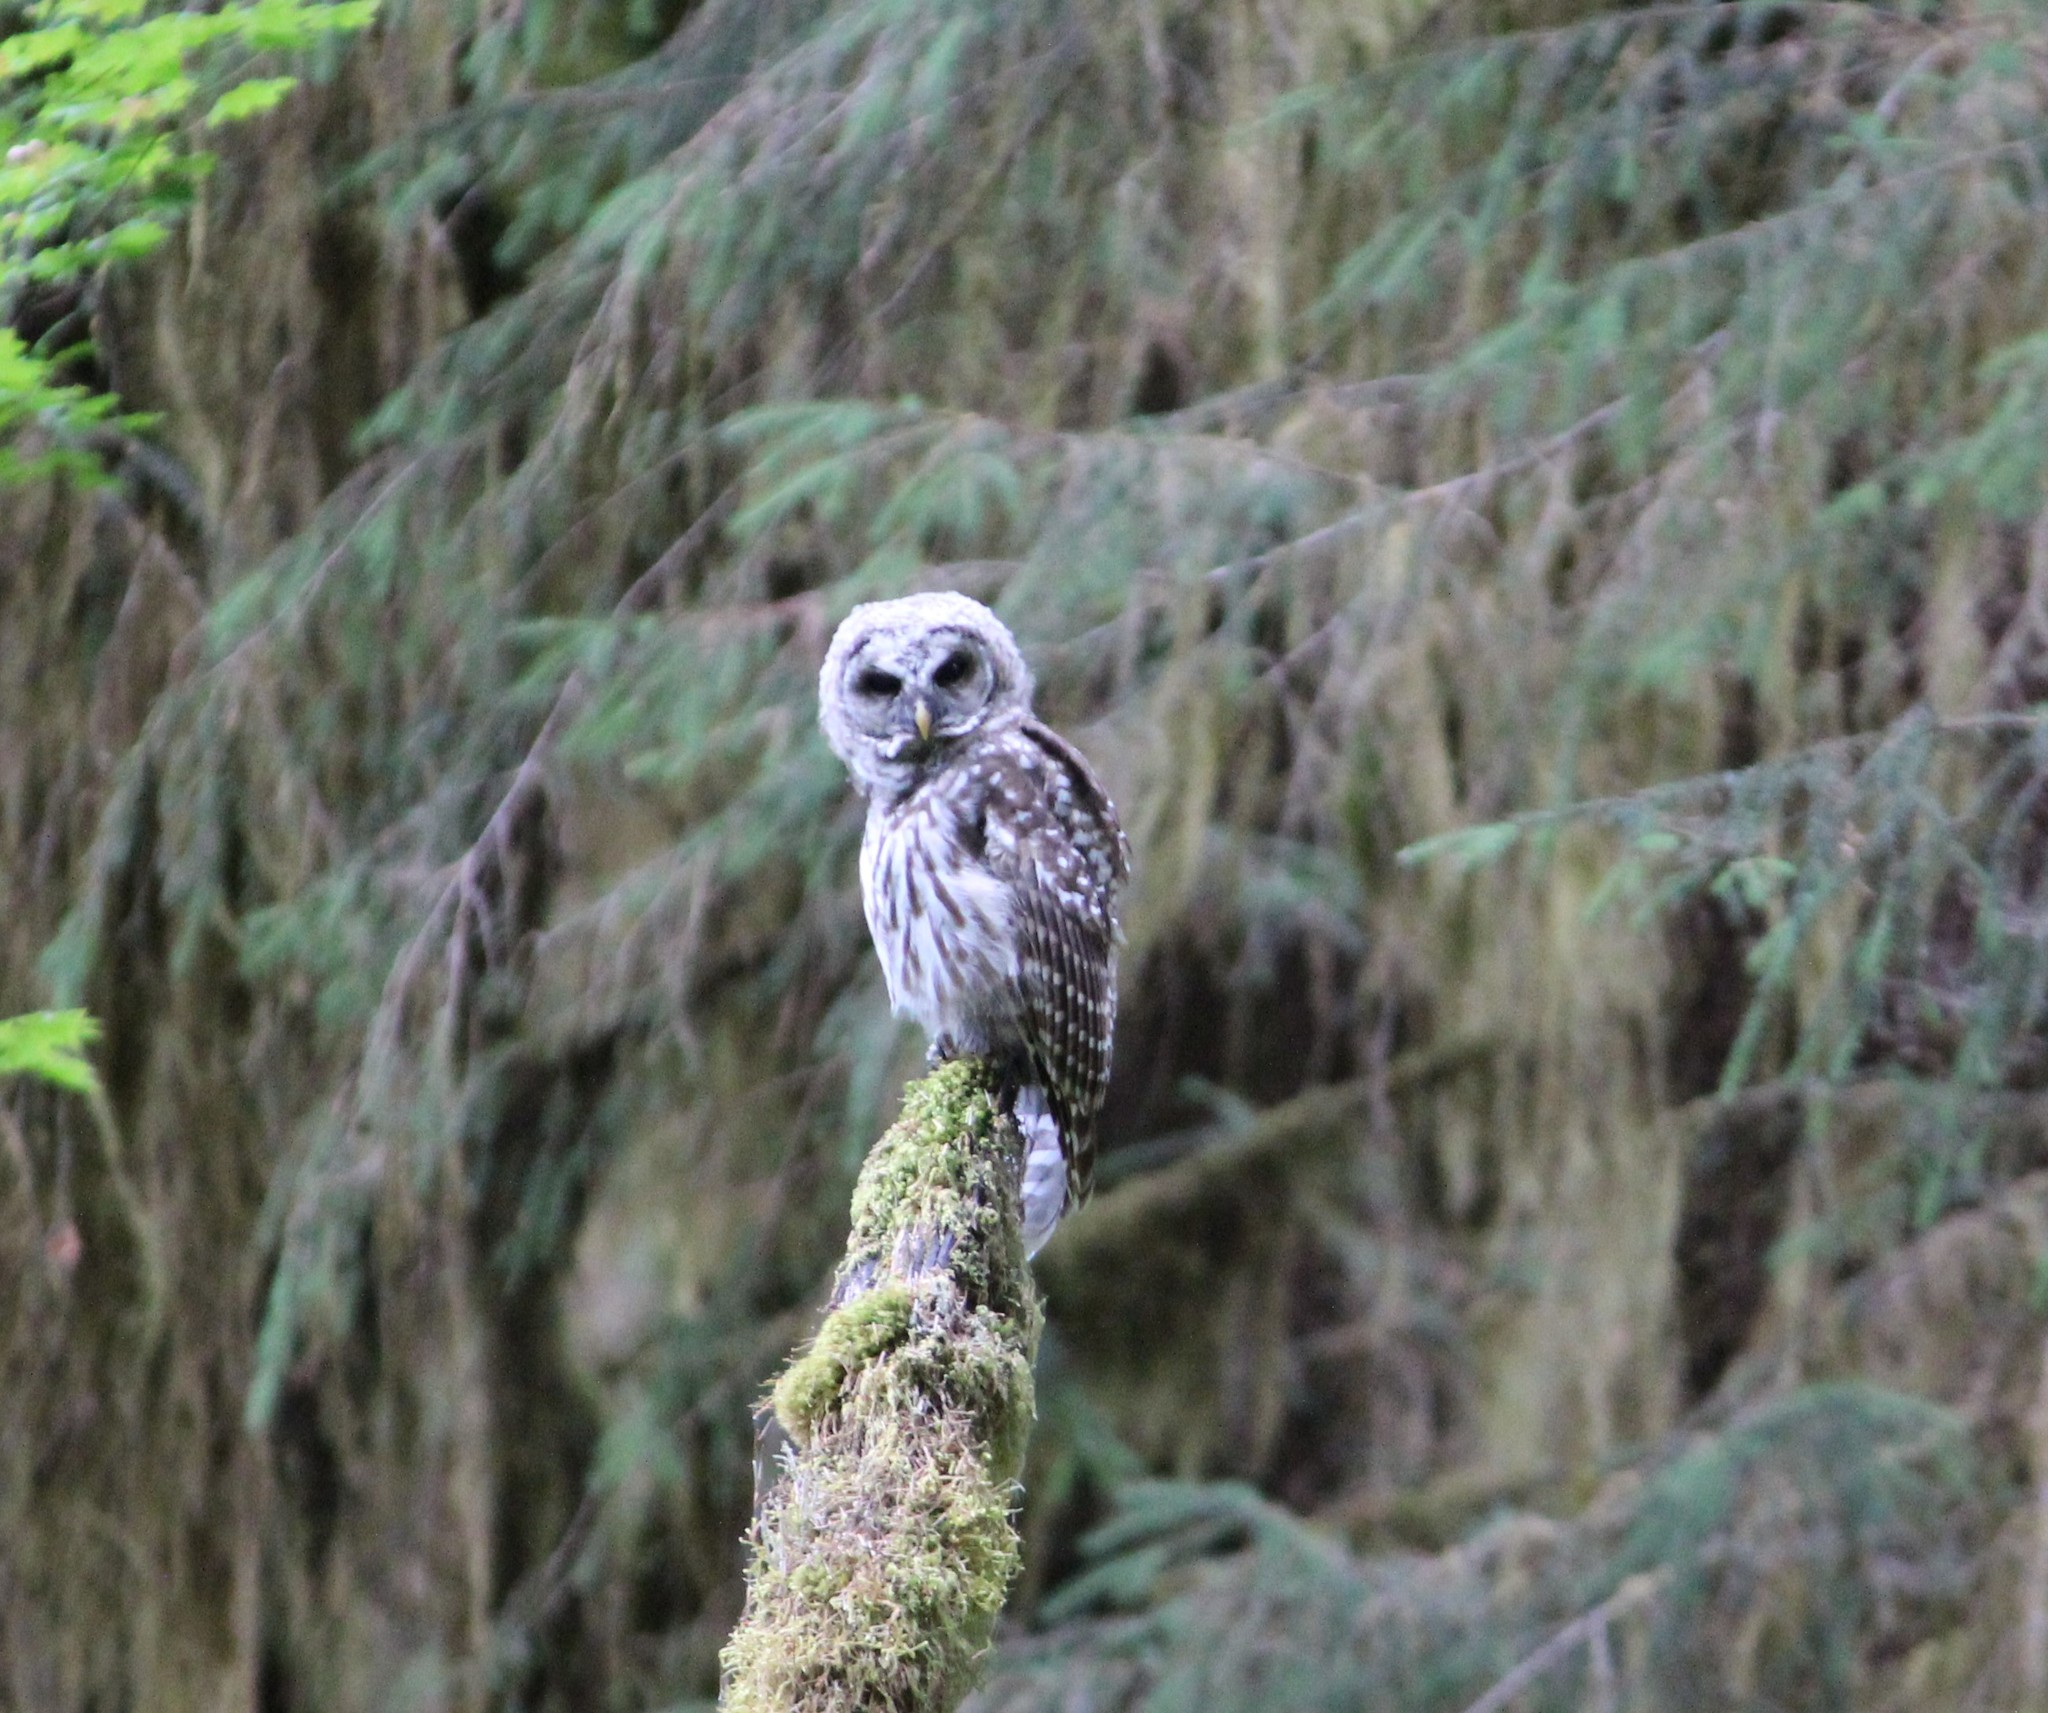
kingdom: Animalia
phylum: Chordata
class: Aves
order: Strigiformes
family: Strigidae
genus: Strix
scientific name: Strix varia
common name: Barred owl
